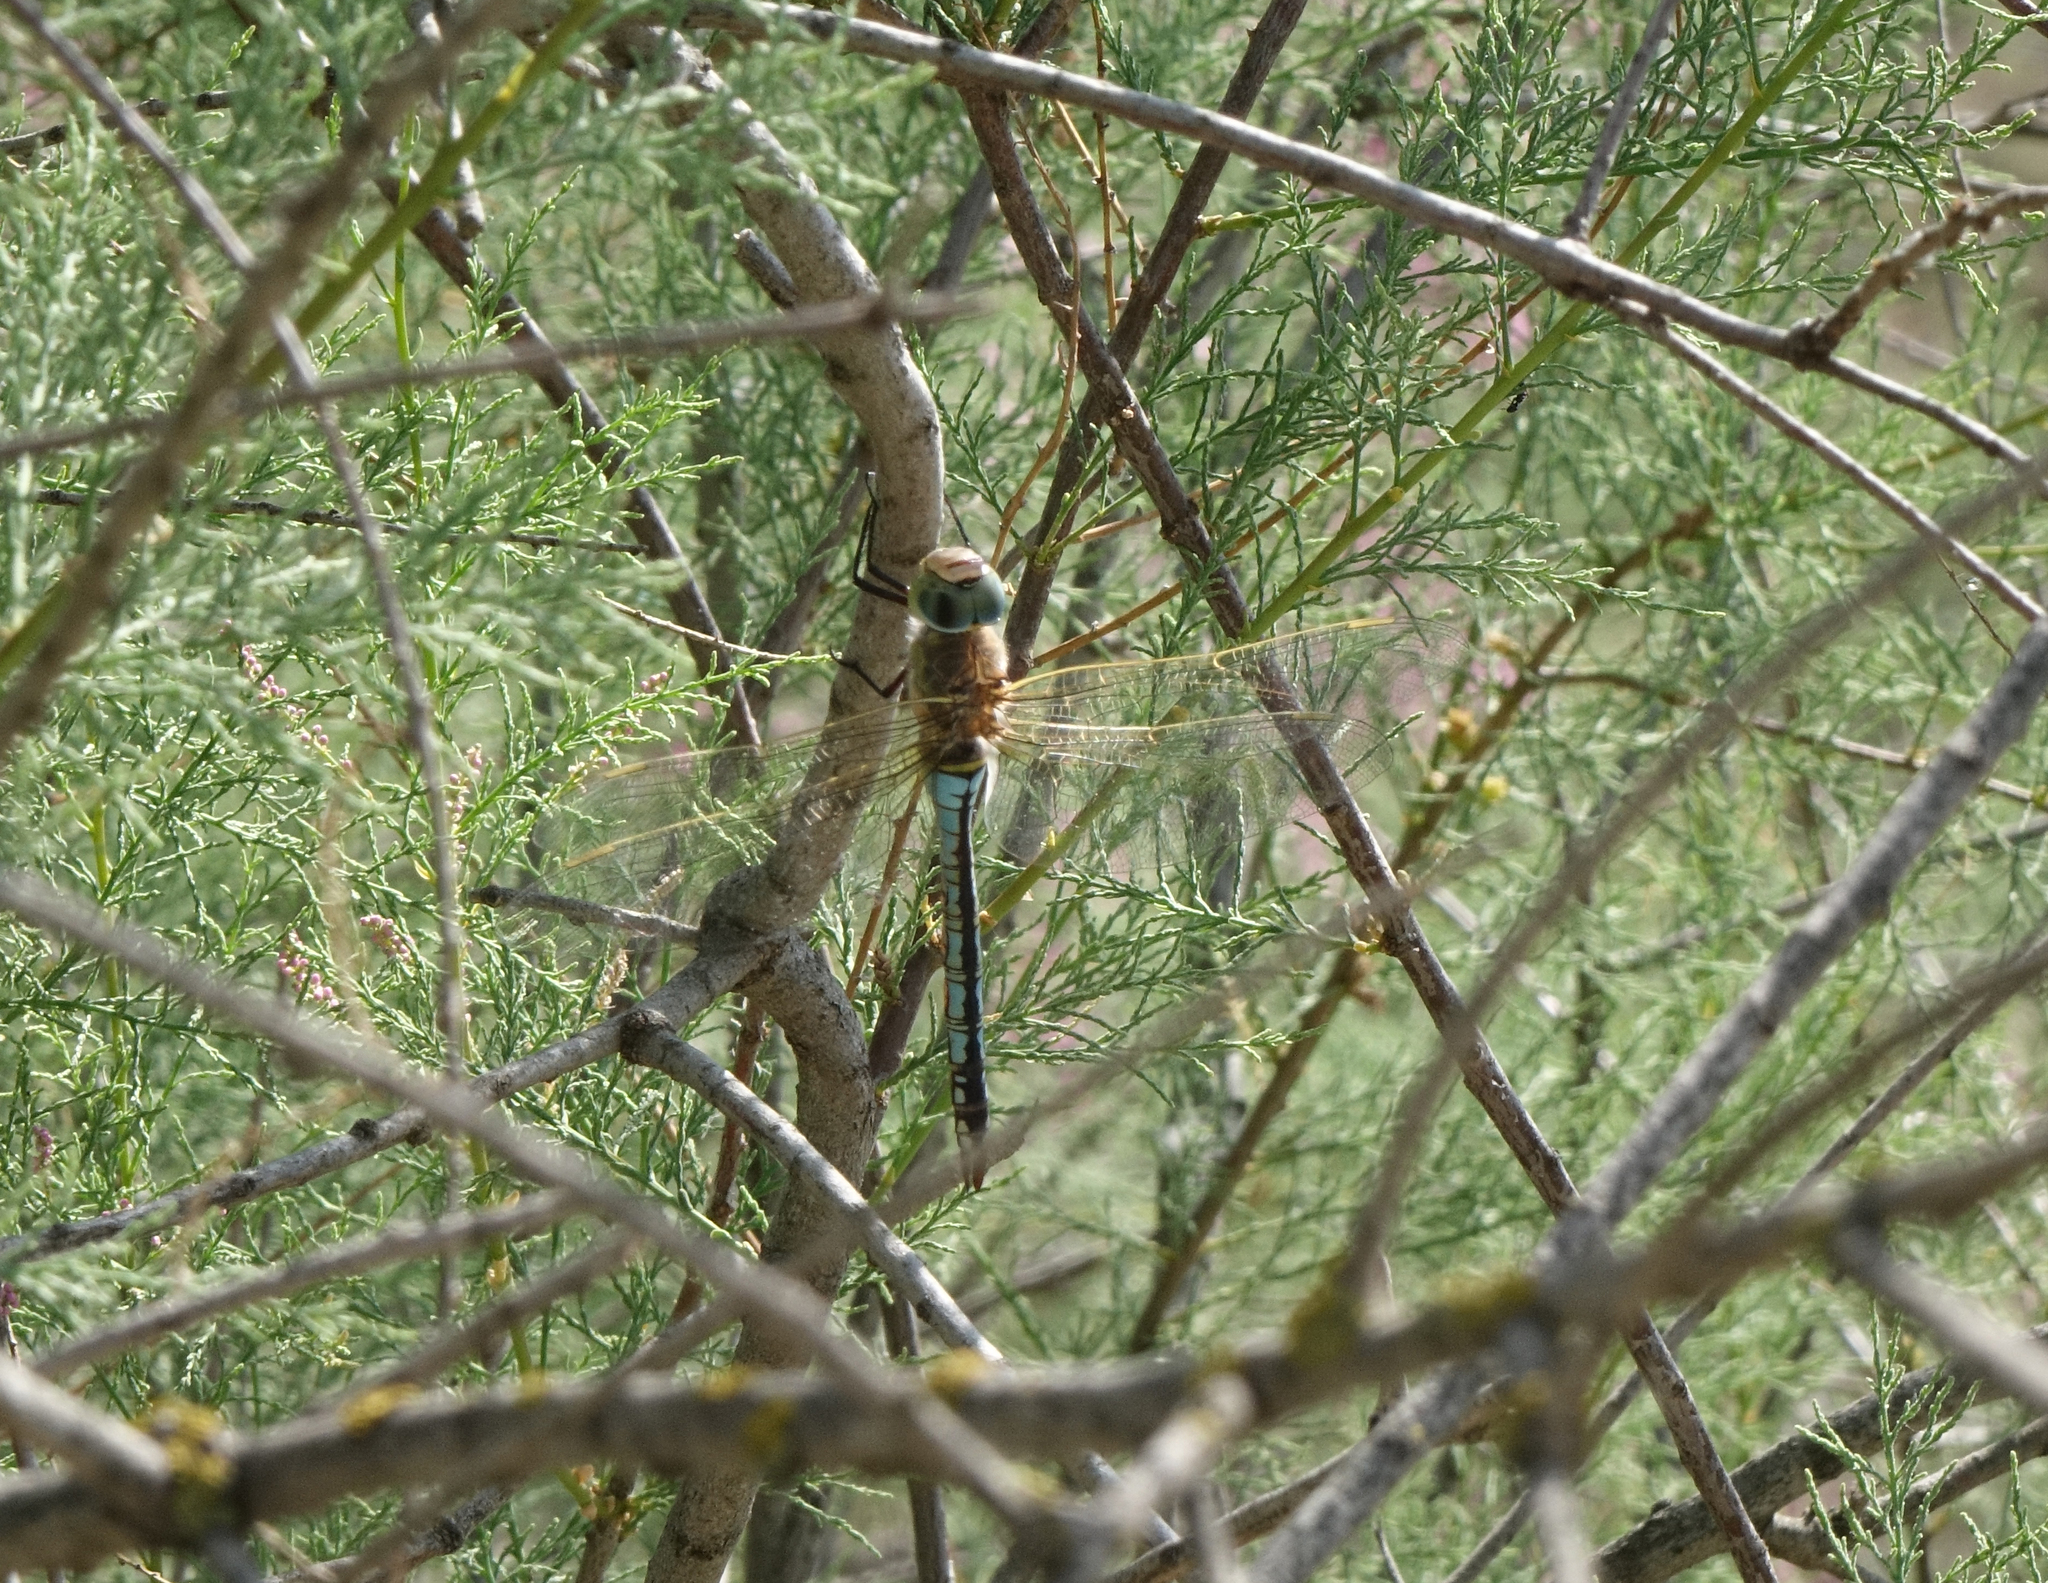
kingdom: Animalia
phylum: Arthropoda
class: Insecta
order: Odonata
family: Aeshnidae
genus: Anax
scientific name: Anax parthenope
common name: Lesser emperor
